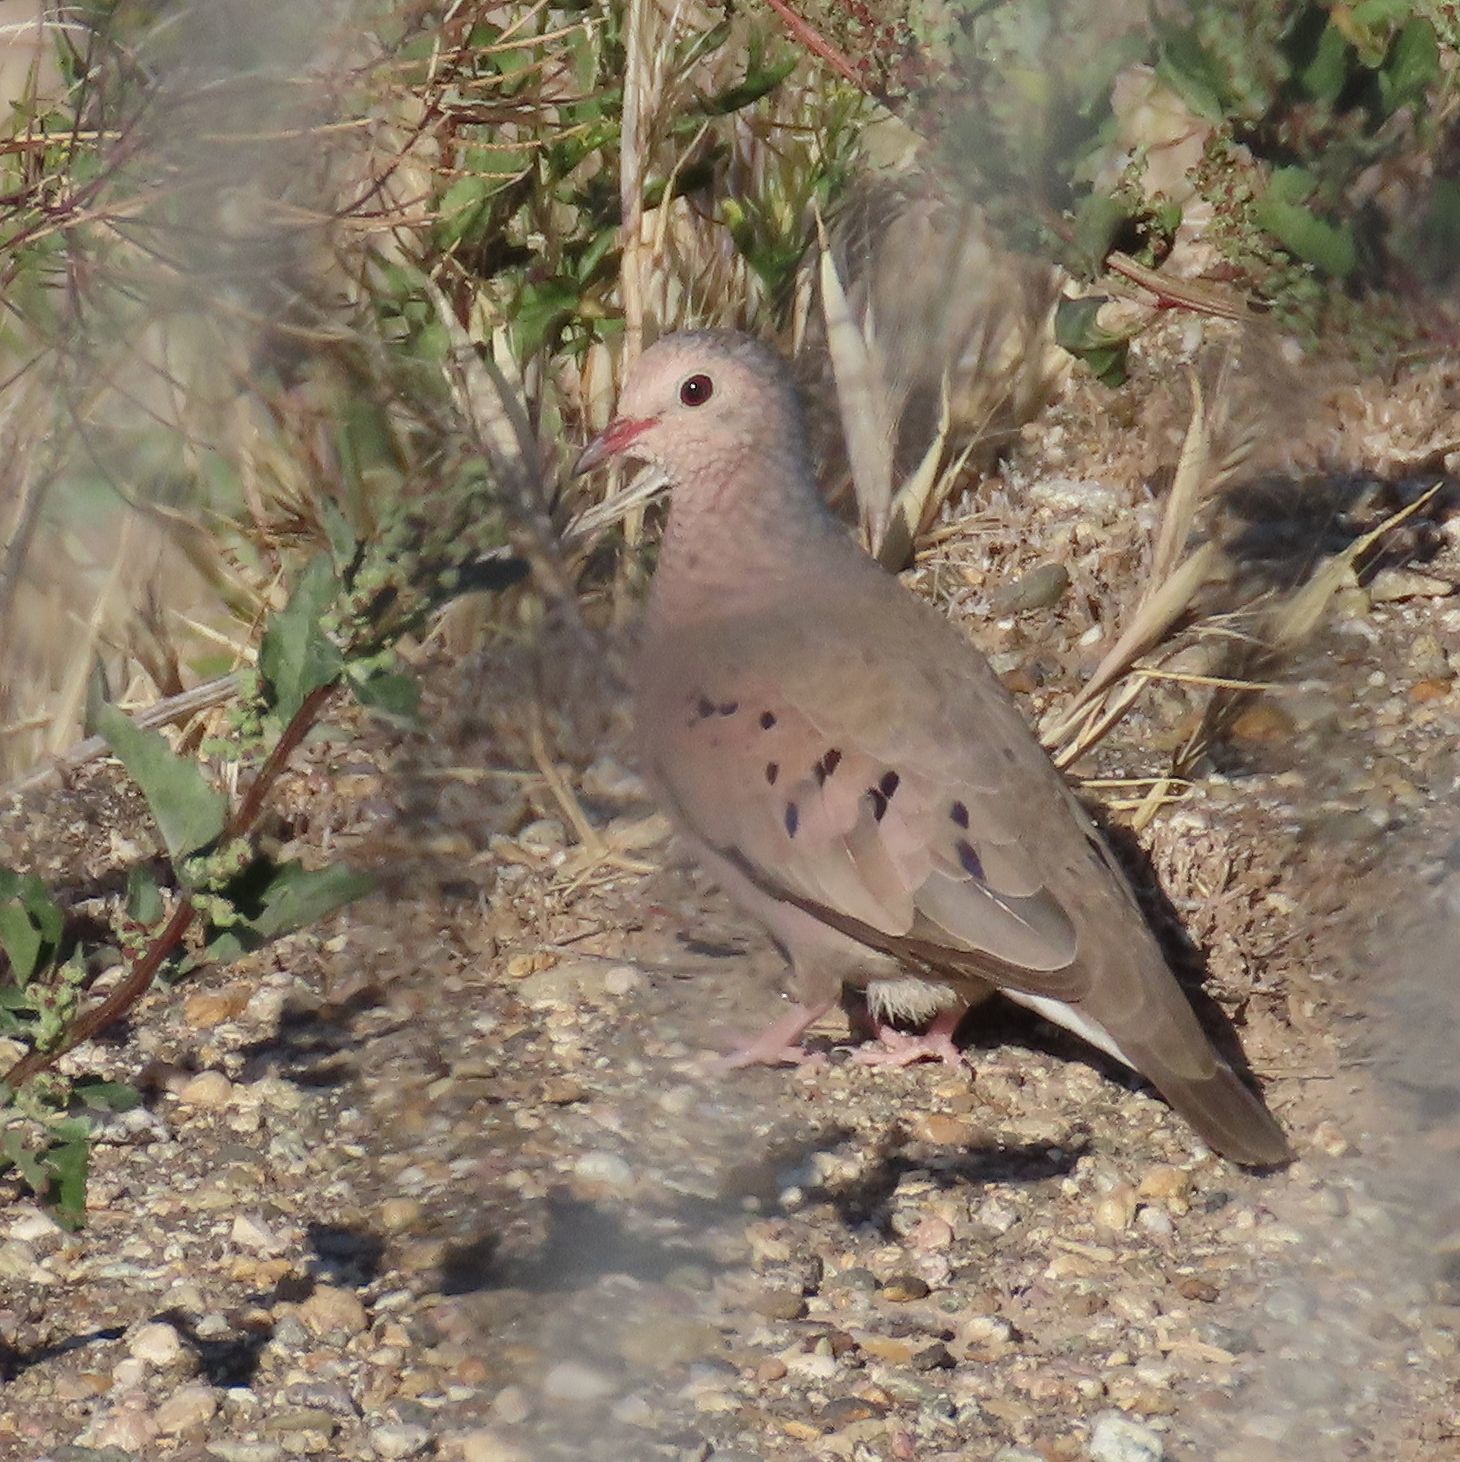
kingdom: Animalia
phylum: Chordata
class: Aves
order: Columbiformes
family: Columbidae
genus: Columbina
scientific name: Columbina passerina
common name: Common ground-dove
